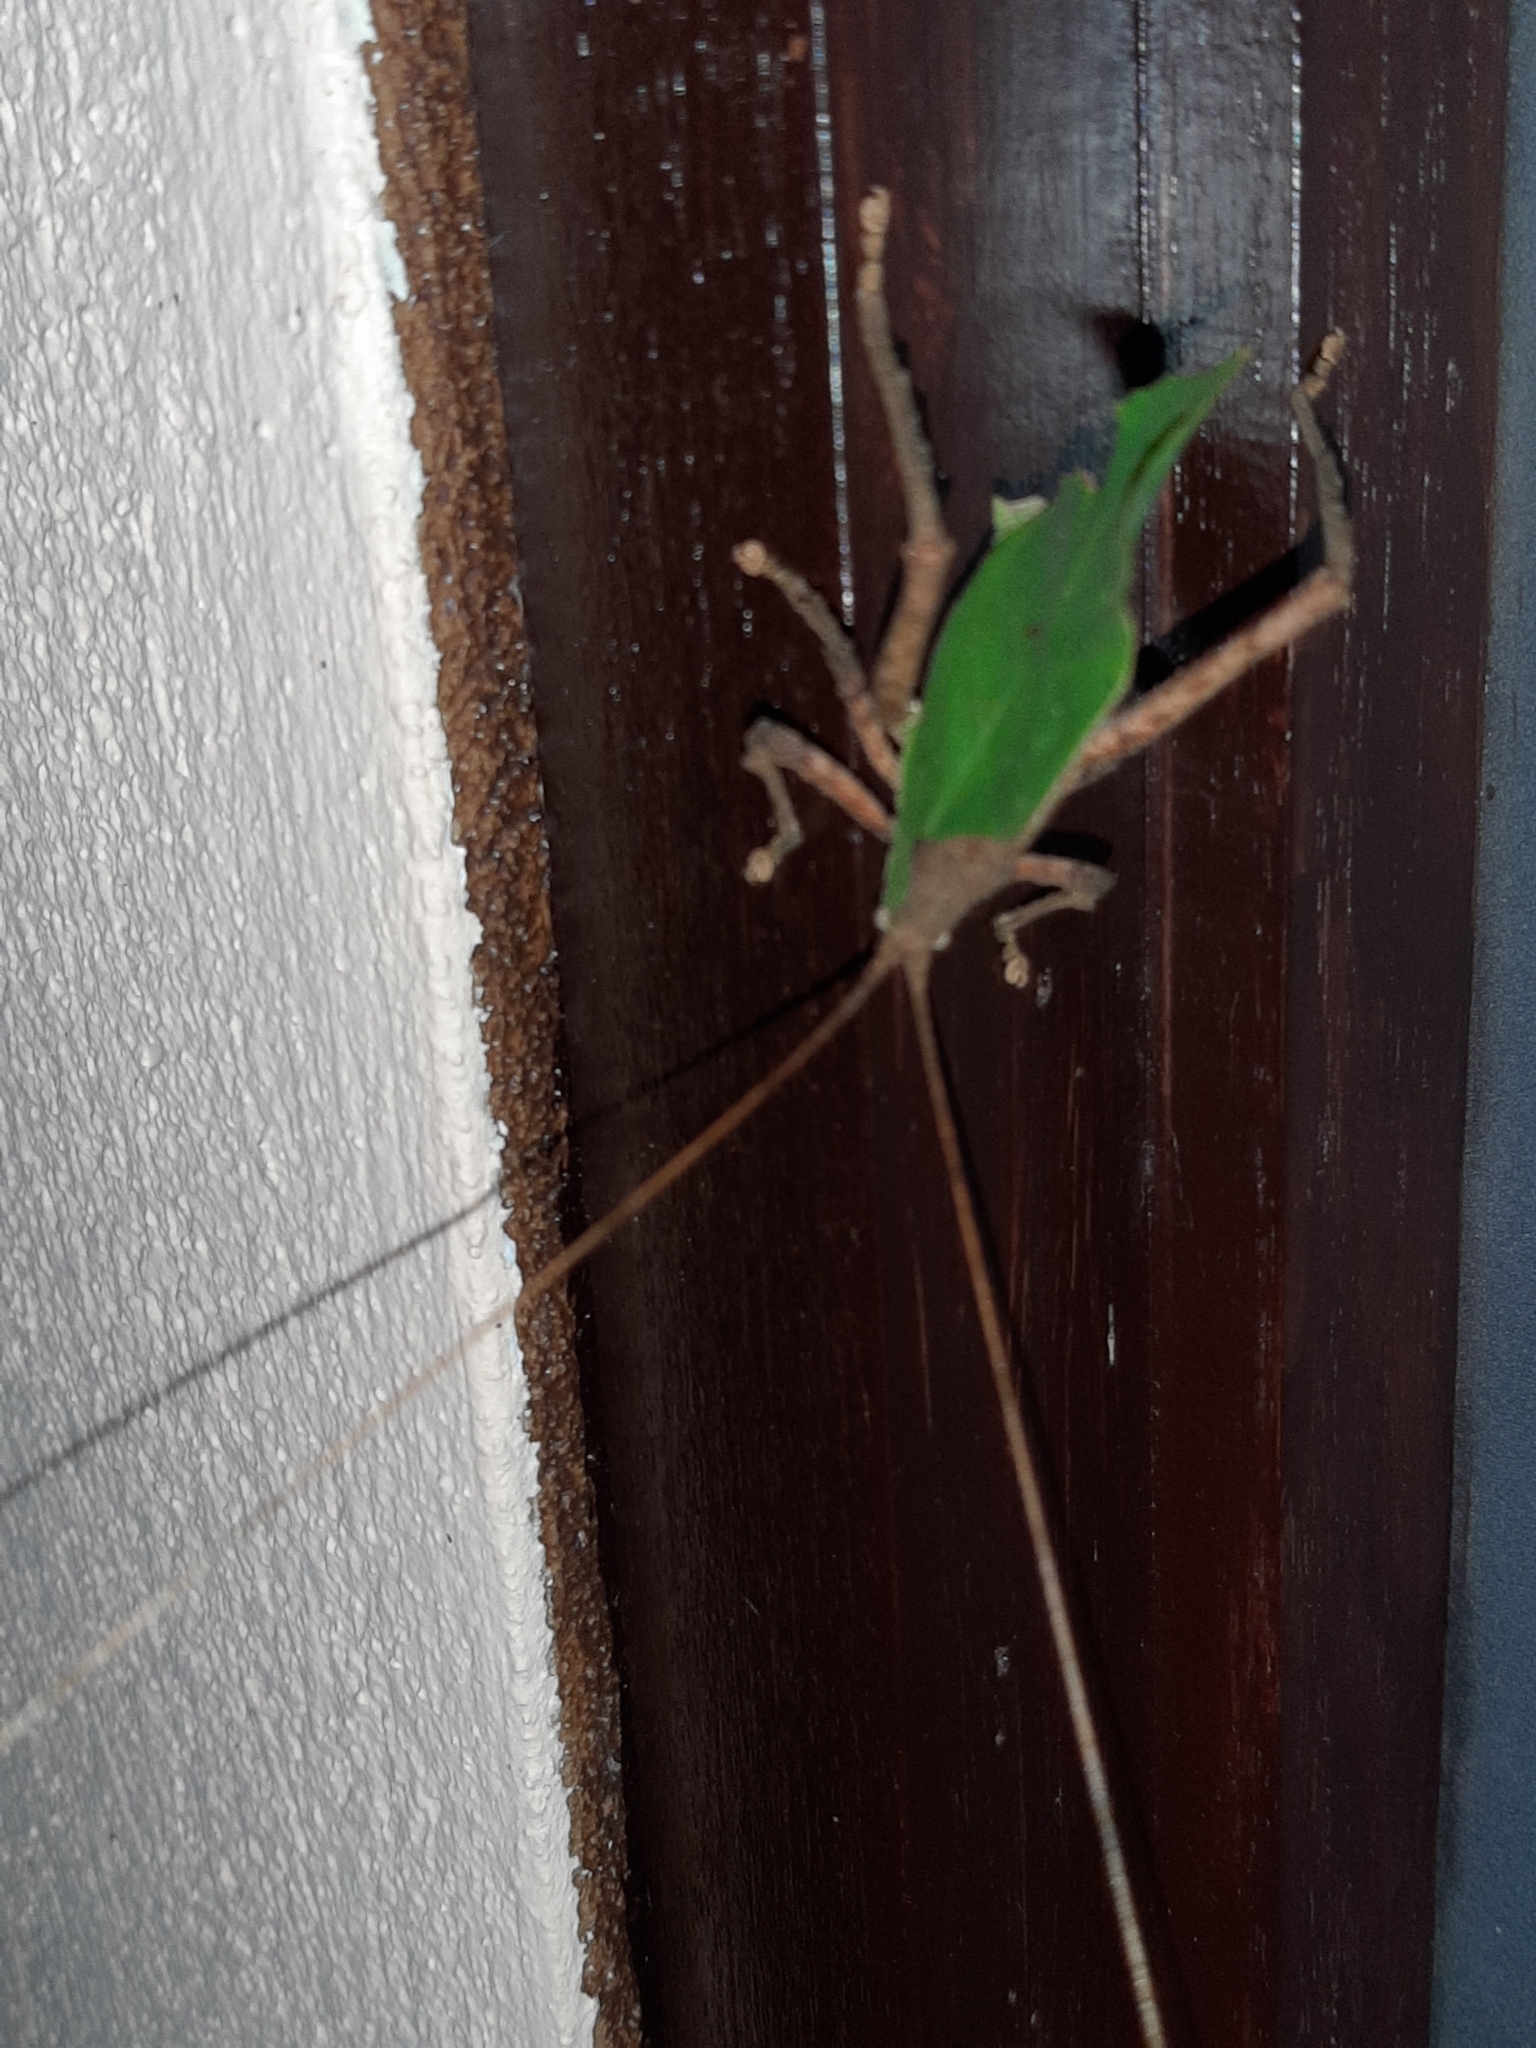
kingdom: Animalia
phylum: Arthropoda
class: Insecta
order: Orthoptera
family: Tettigoniidae
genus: Mimetica
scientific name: Mimetica incisa
